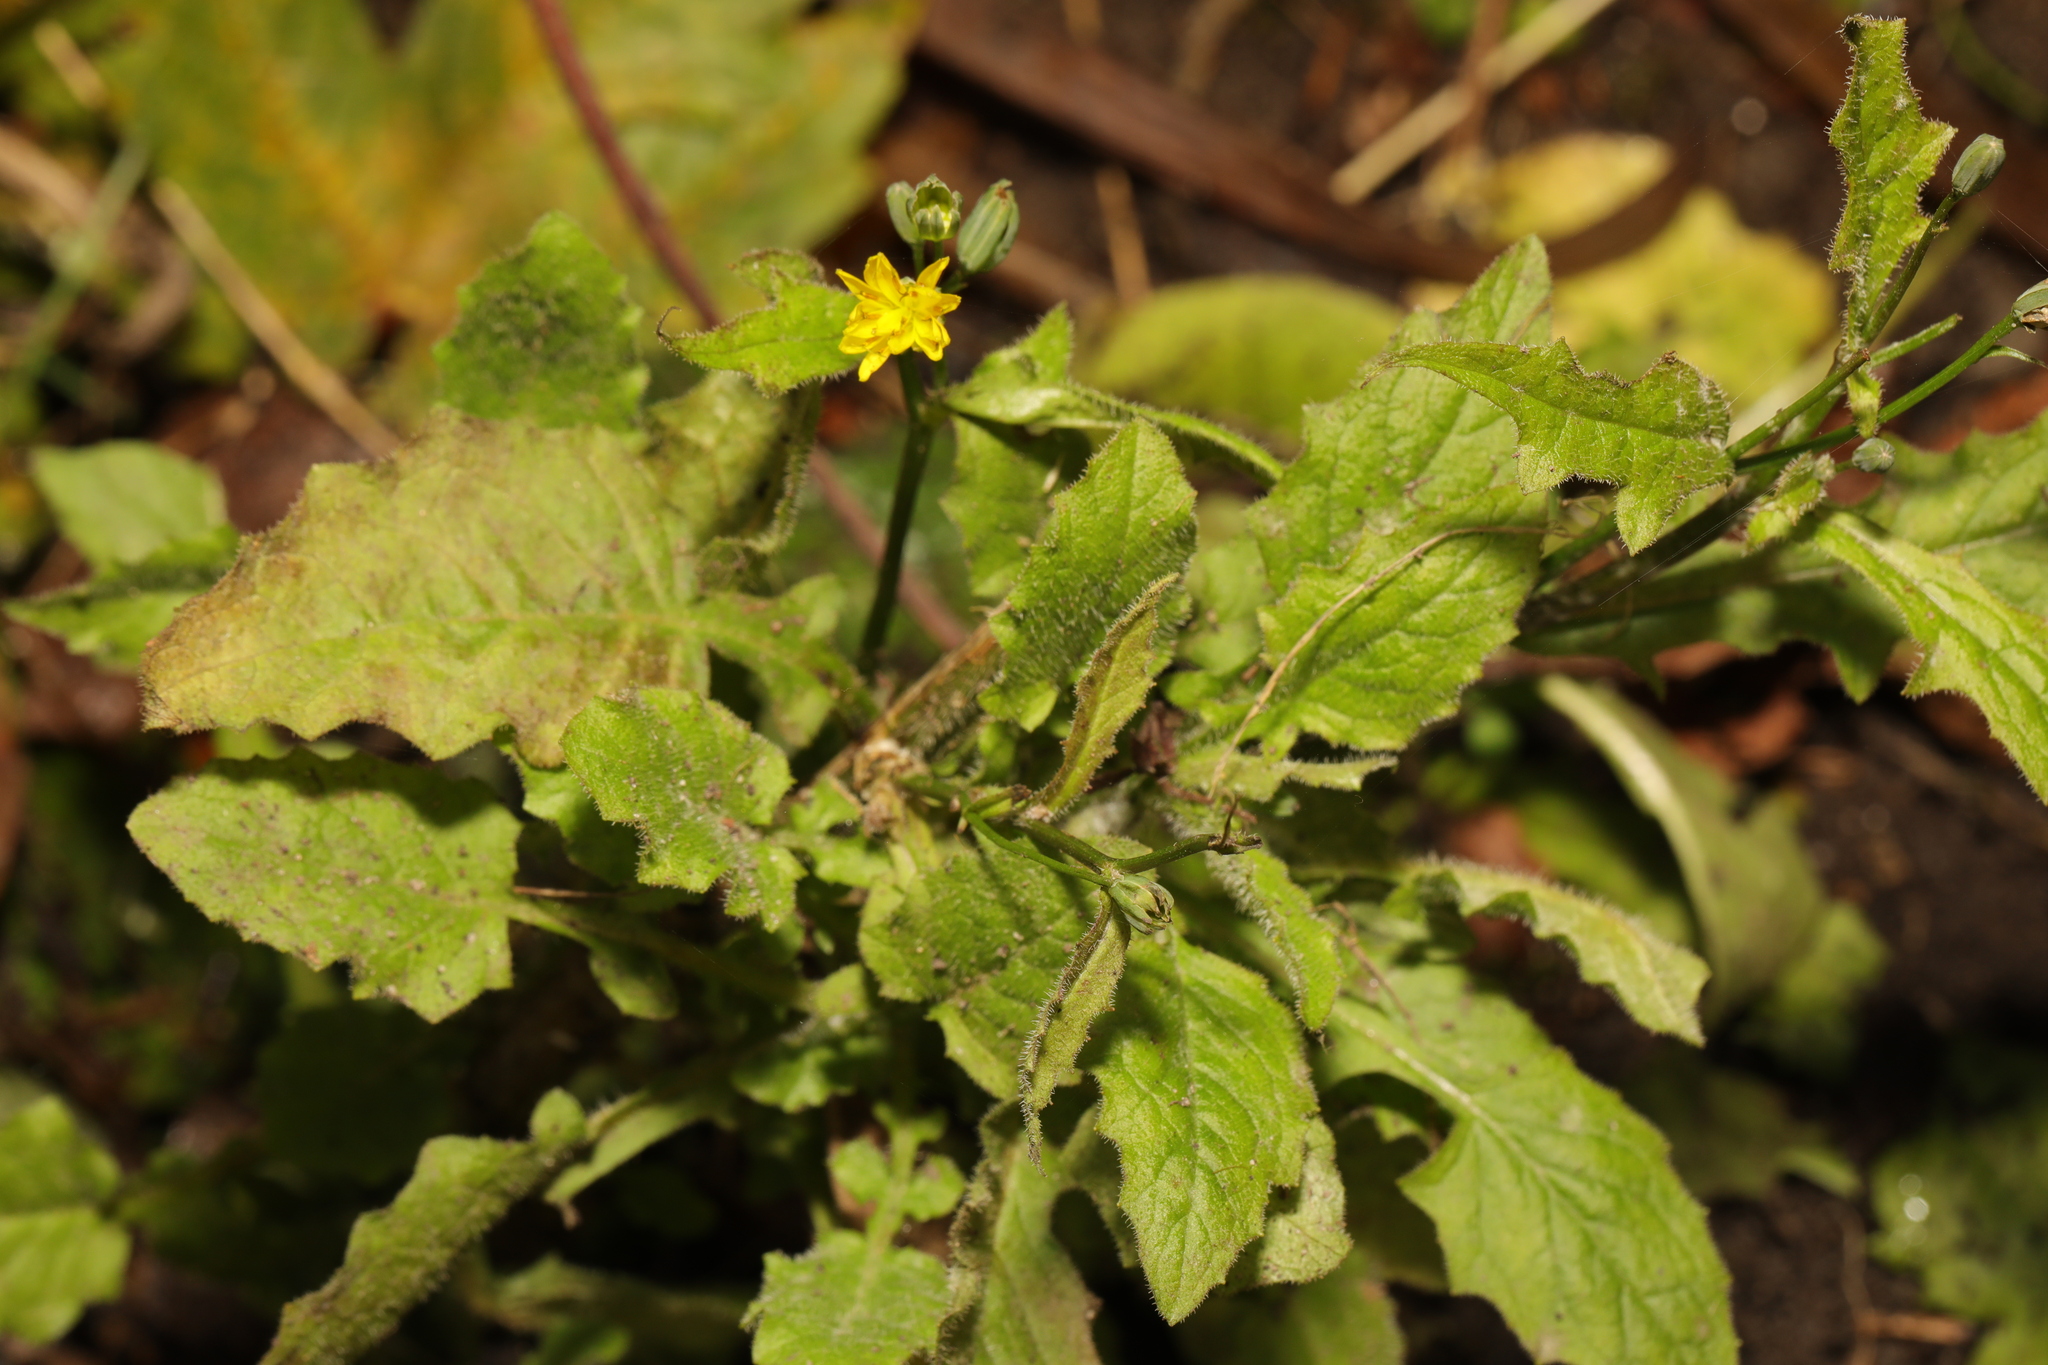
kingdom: Plantae
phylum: Tracheophyta
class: Magnoliopsida
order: Asterales
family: Asteraceae
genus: Lapsana
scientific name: Lapsana communis
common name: Nipplewort
